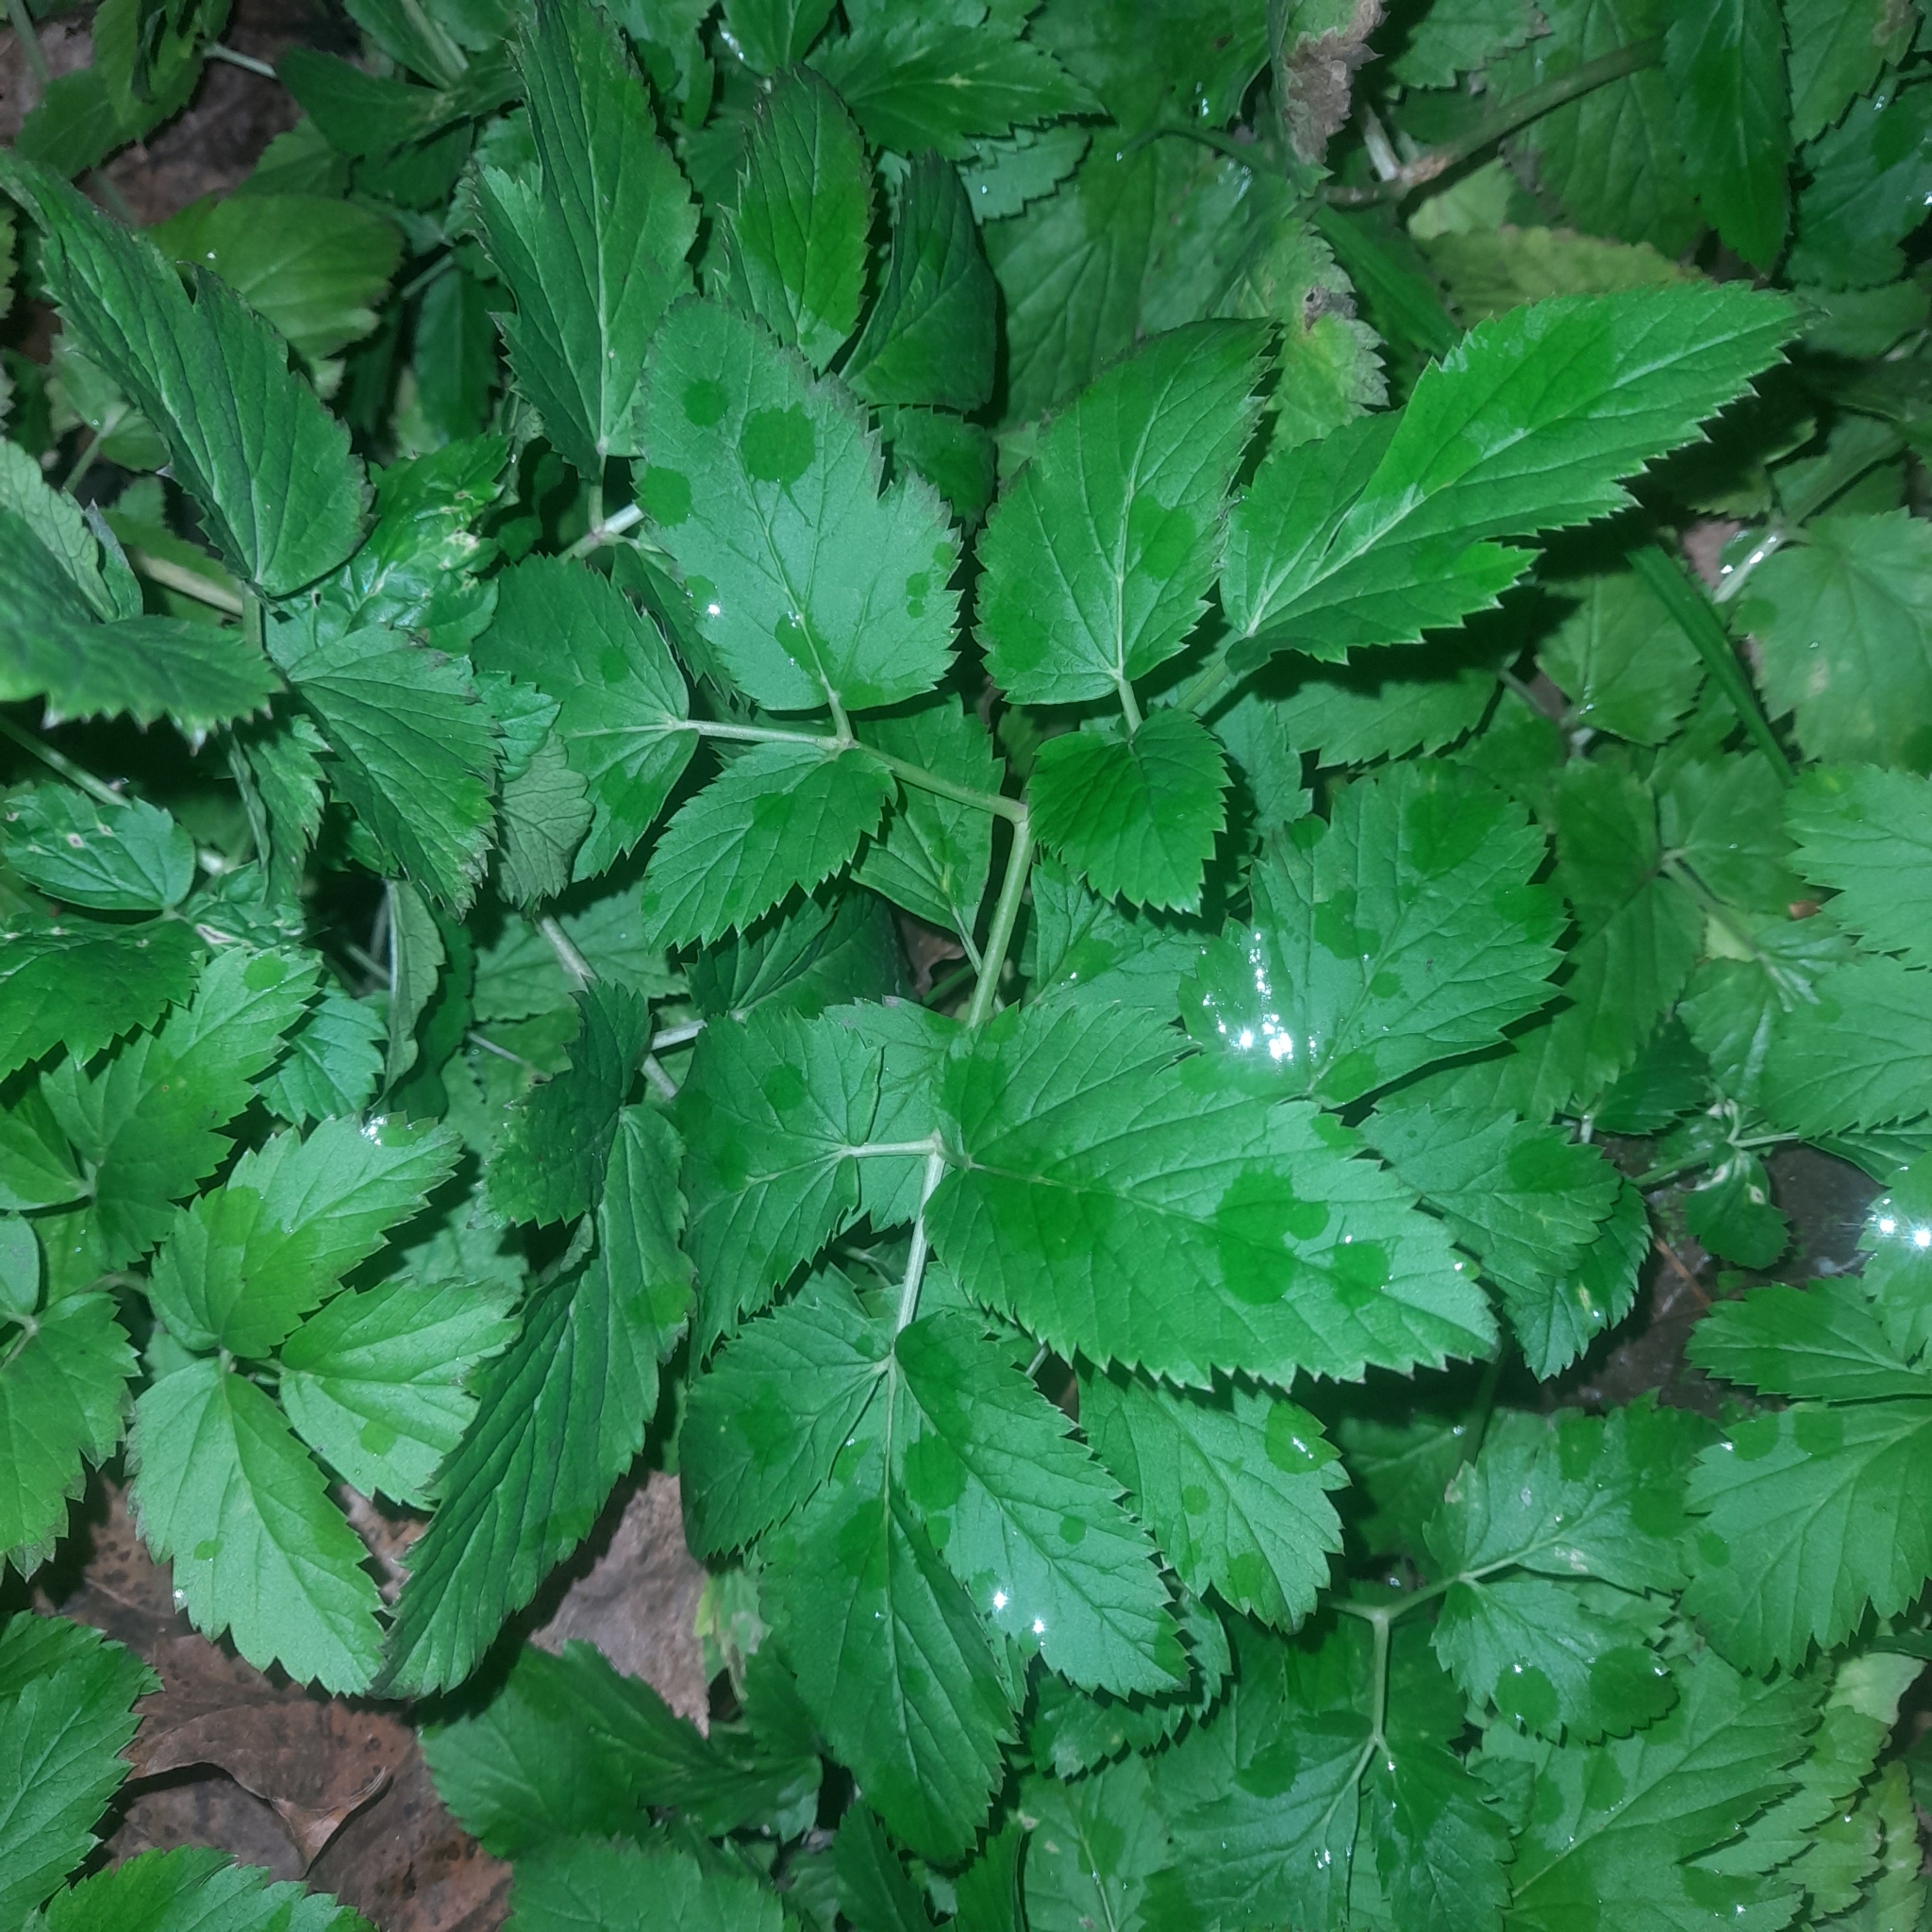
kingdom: Plantae
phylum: Tracheophyta
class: Magnoliopsida
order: Apiales
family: Apiaceae
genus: Aegopodium
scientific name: Aegopodium podagraria
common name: Ground-elder
